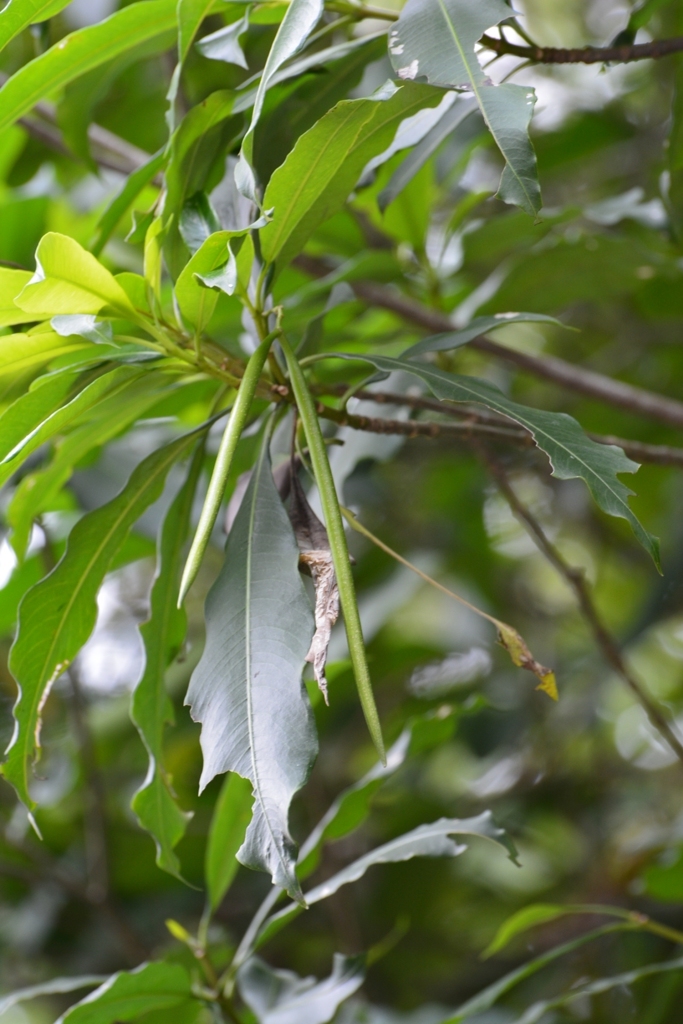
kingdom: Plantae
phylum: Tracheophyta
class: Magnoliopsida
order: Gentianales
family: Apocynaceae
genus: Tonduzia
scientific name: Tonduzia longifolia
